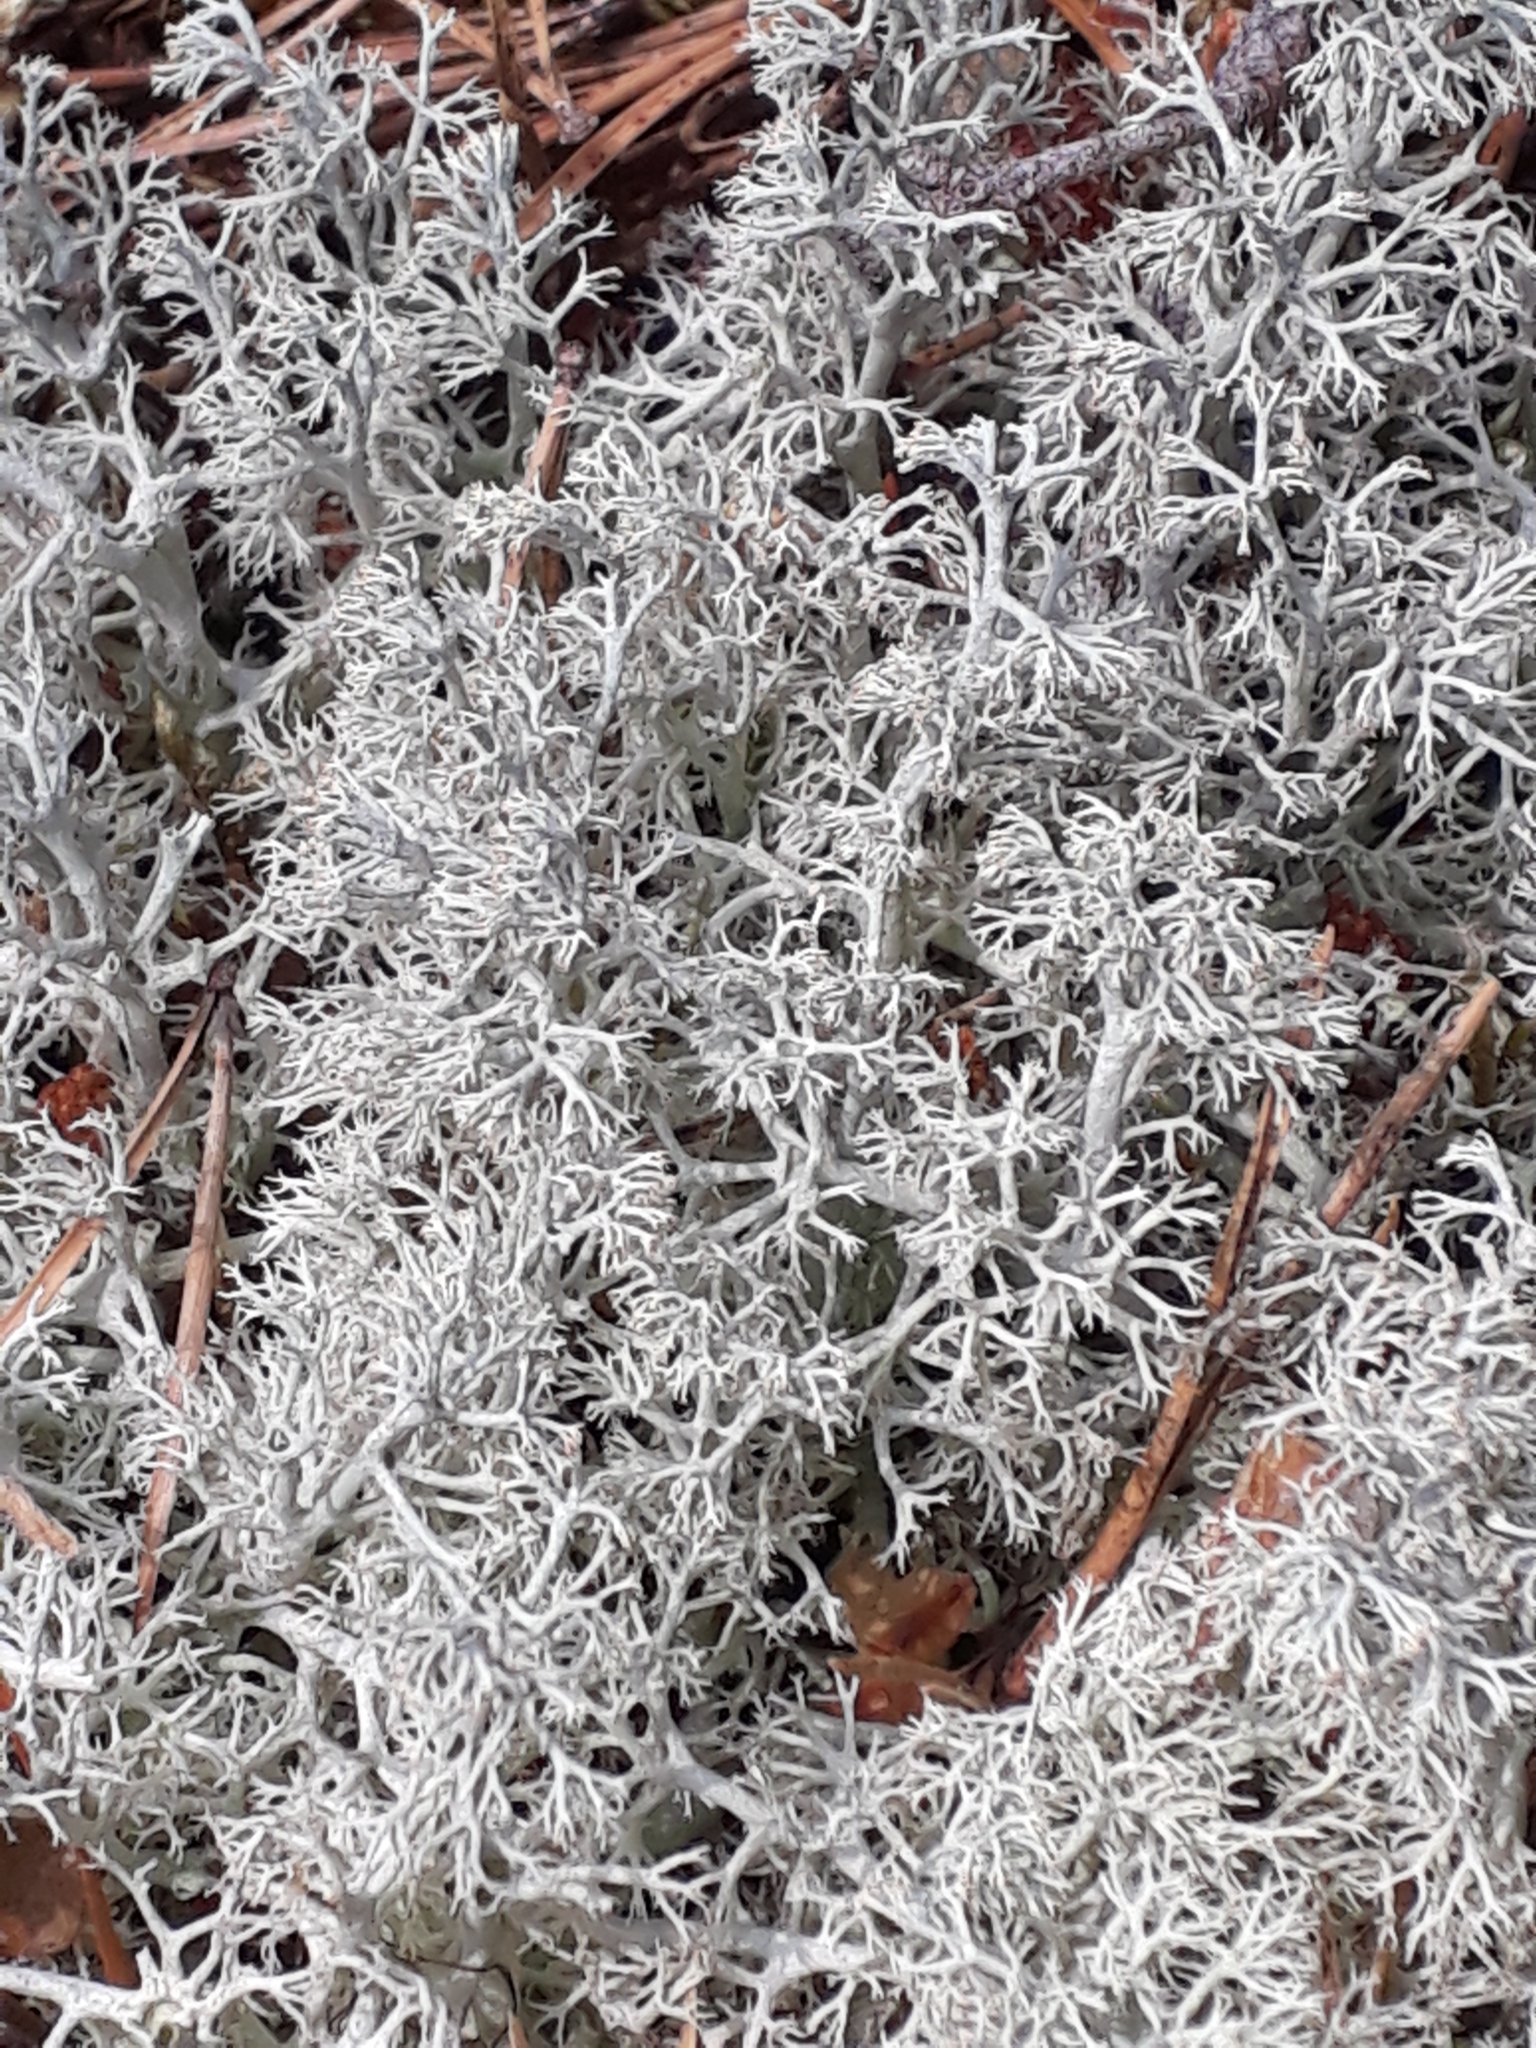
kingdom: Fungi
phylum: Ascomycota
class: Lecanoromycetes
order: Lecanorales
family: Cladoniaceae
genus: Cladonia
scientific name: Cladonia rangiferina
